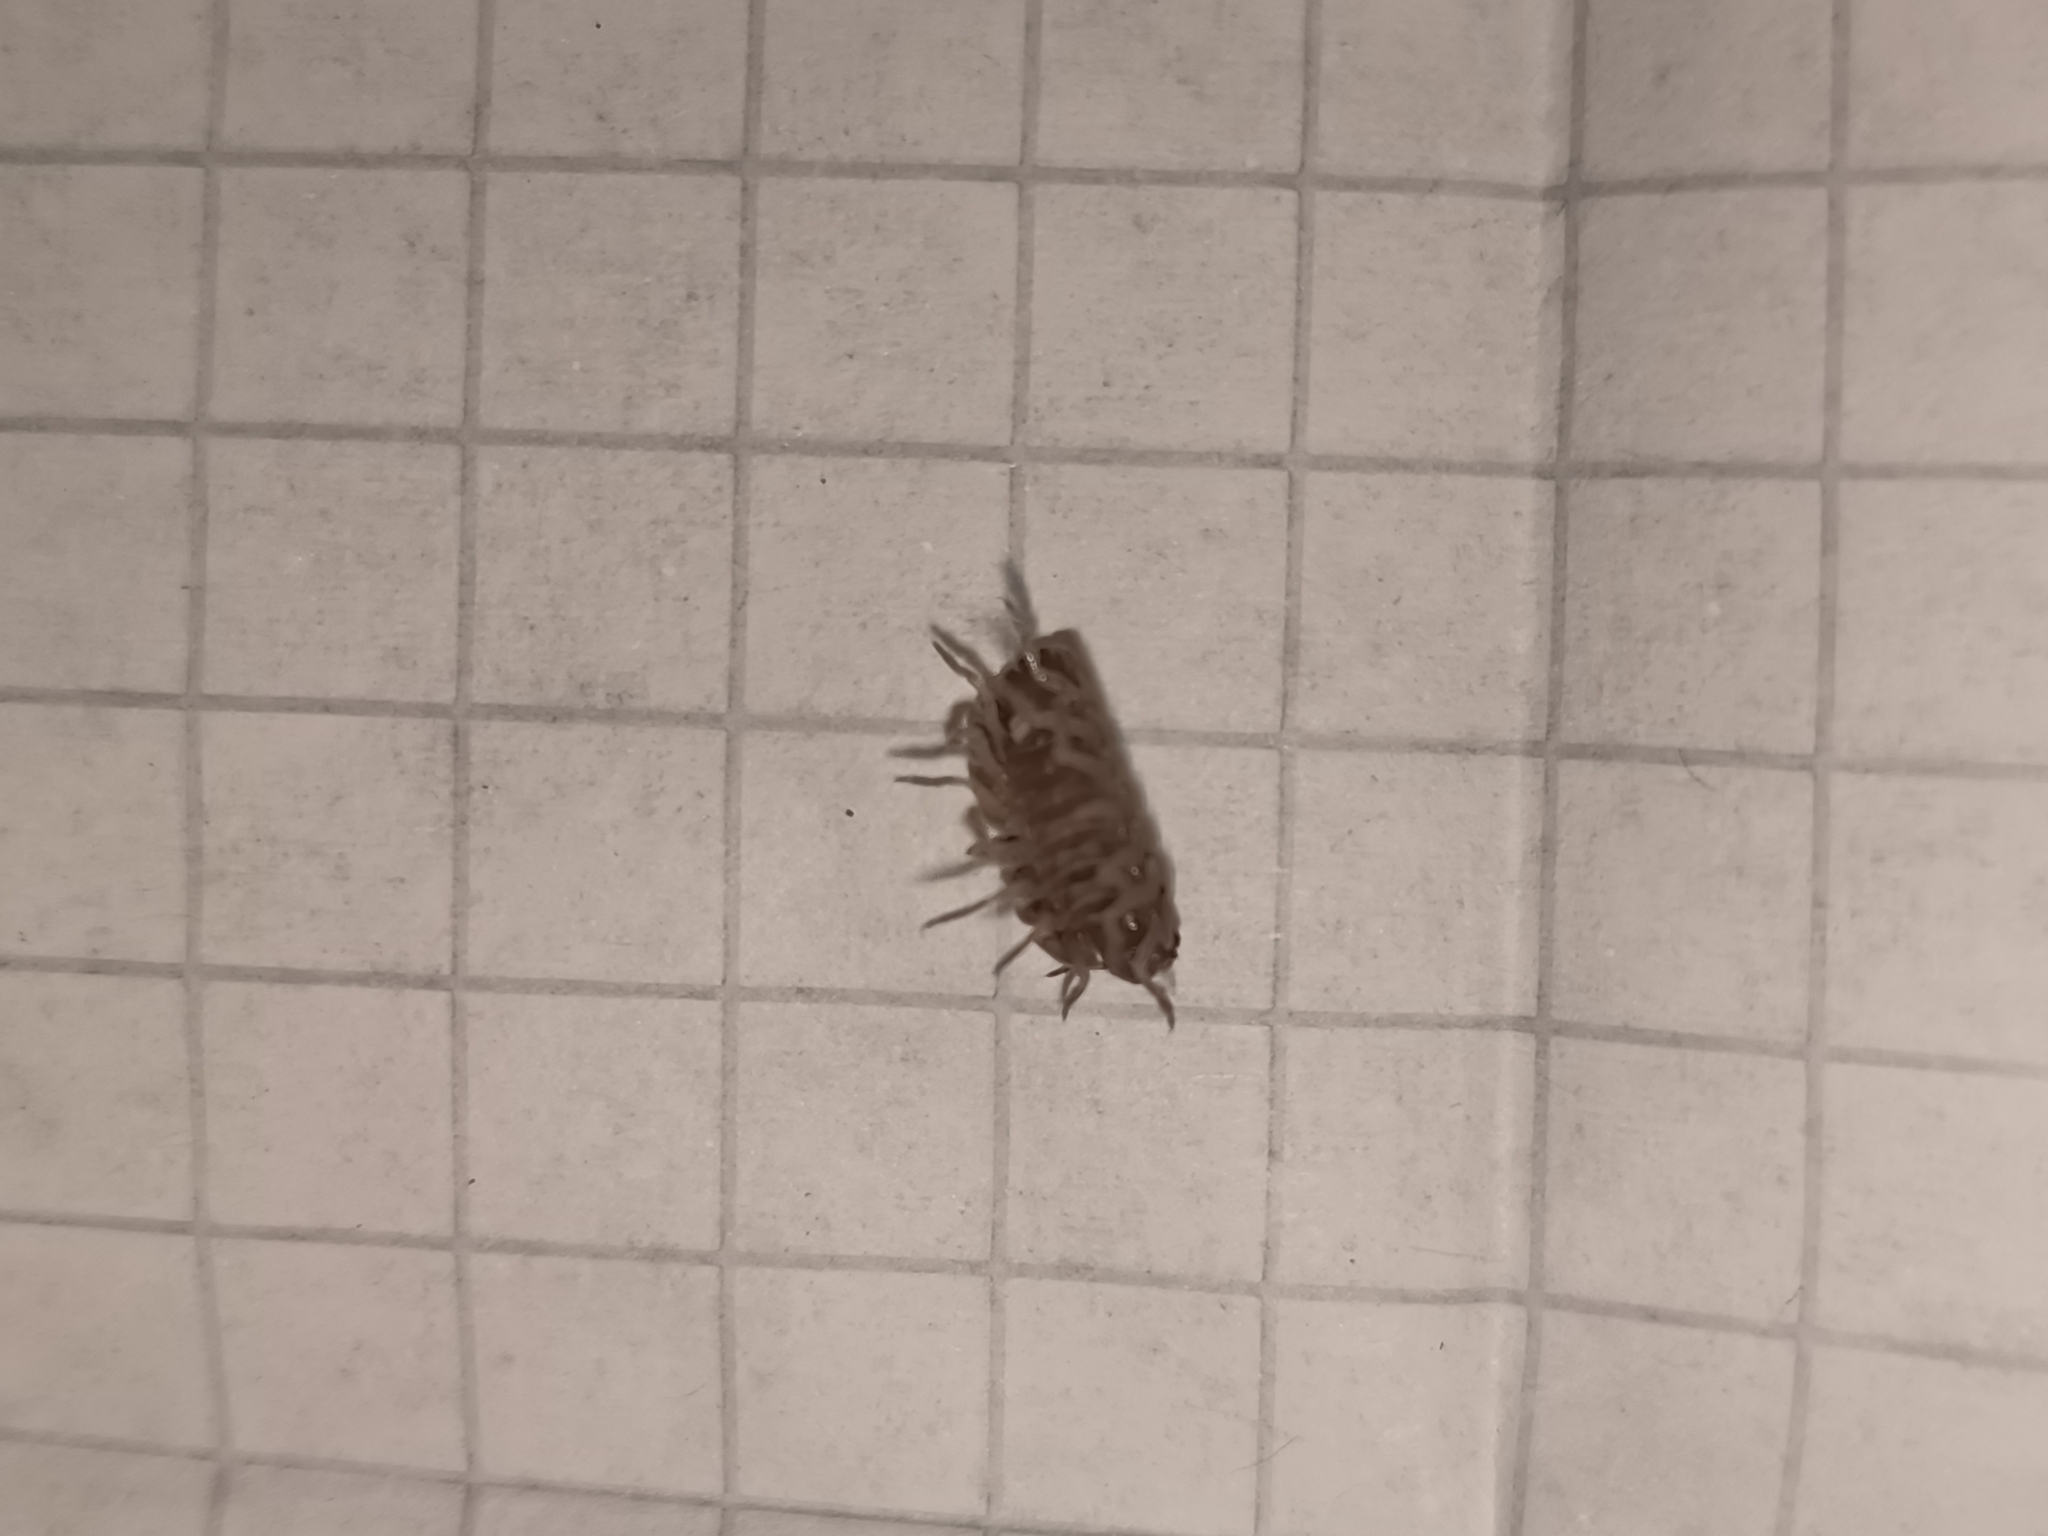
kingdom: Animalia
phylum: Arthropoda
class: Malacostraca
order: Isopoda
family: Armadillidiidae
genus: Armadillidium
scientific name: Armadillidium vulgare
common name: Common pill woodlouse
